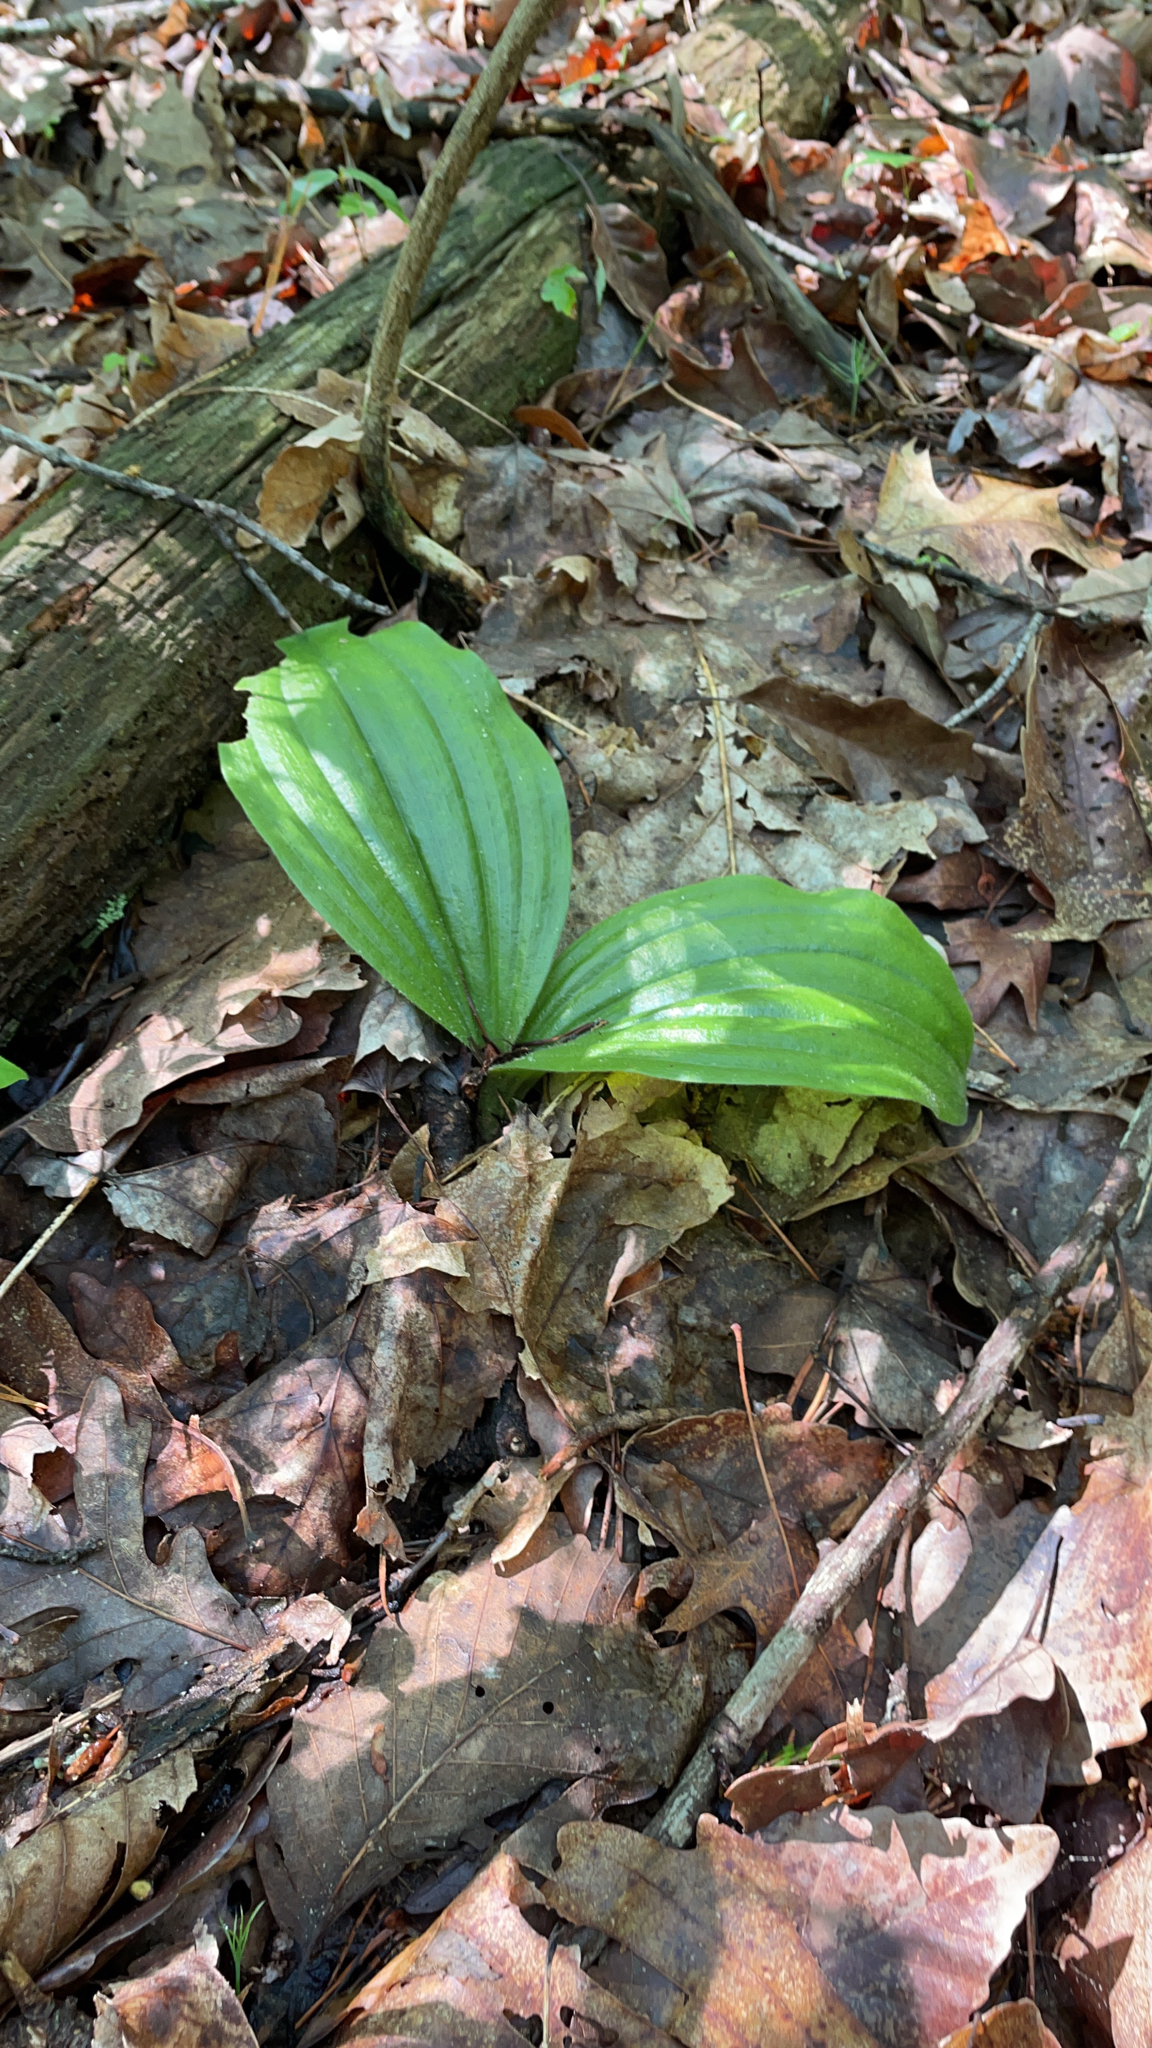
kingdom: Plantae
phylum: Tracheophyta
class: Liliopsida
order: Asparagales
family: Orchidaceae
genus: Cypripedium
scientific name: Cypripedium acaule
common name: Pink lady's-slipper
